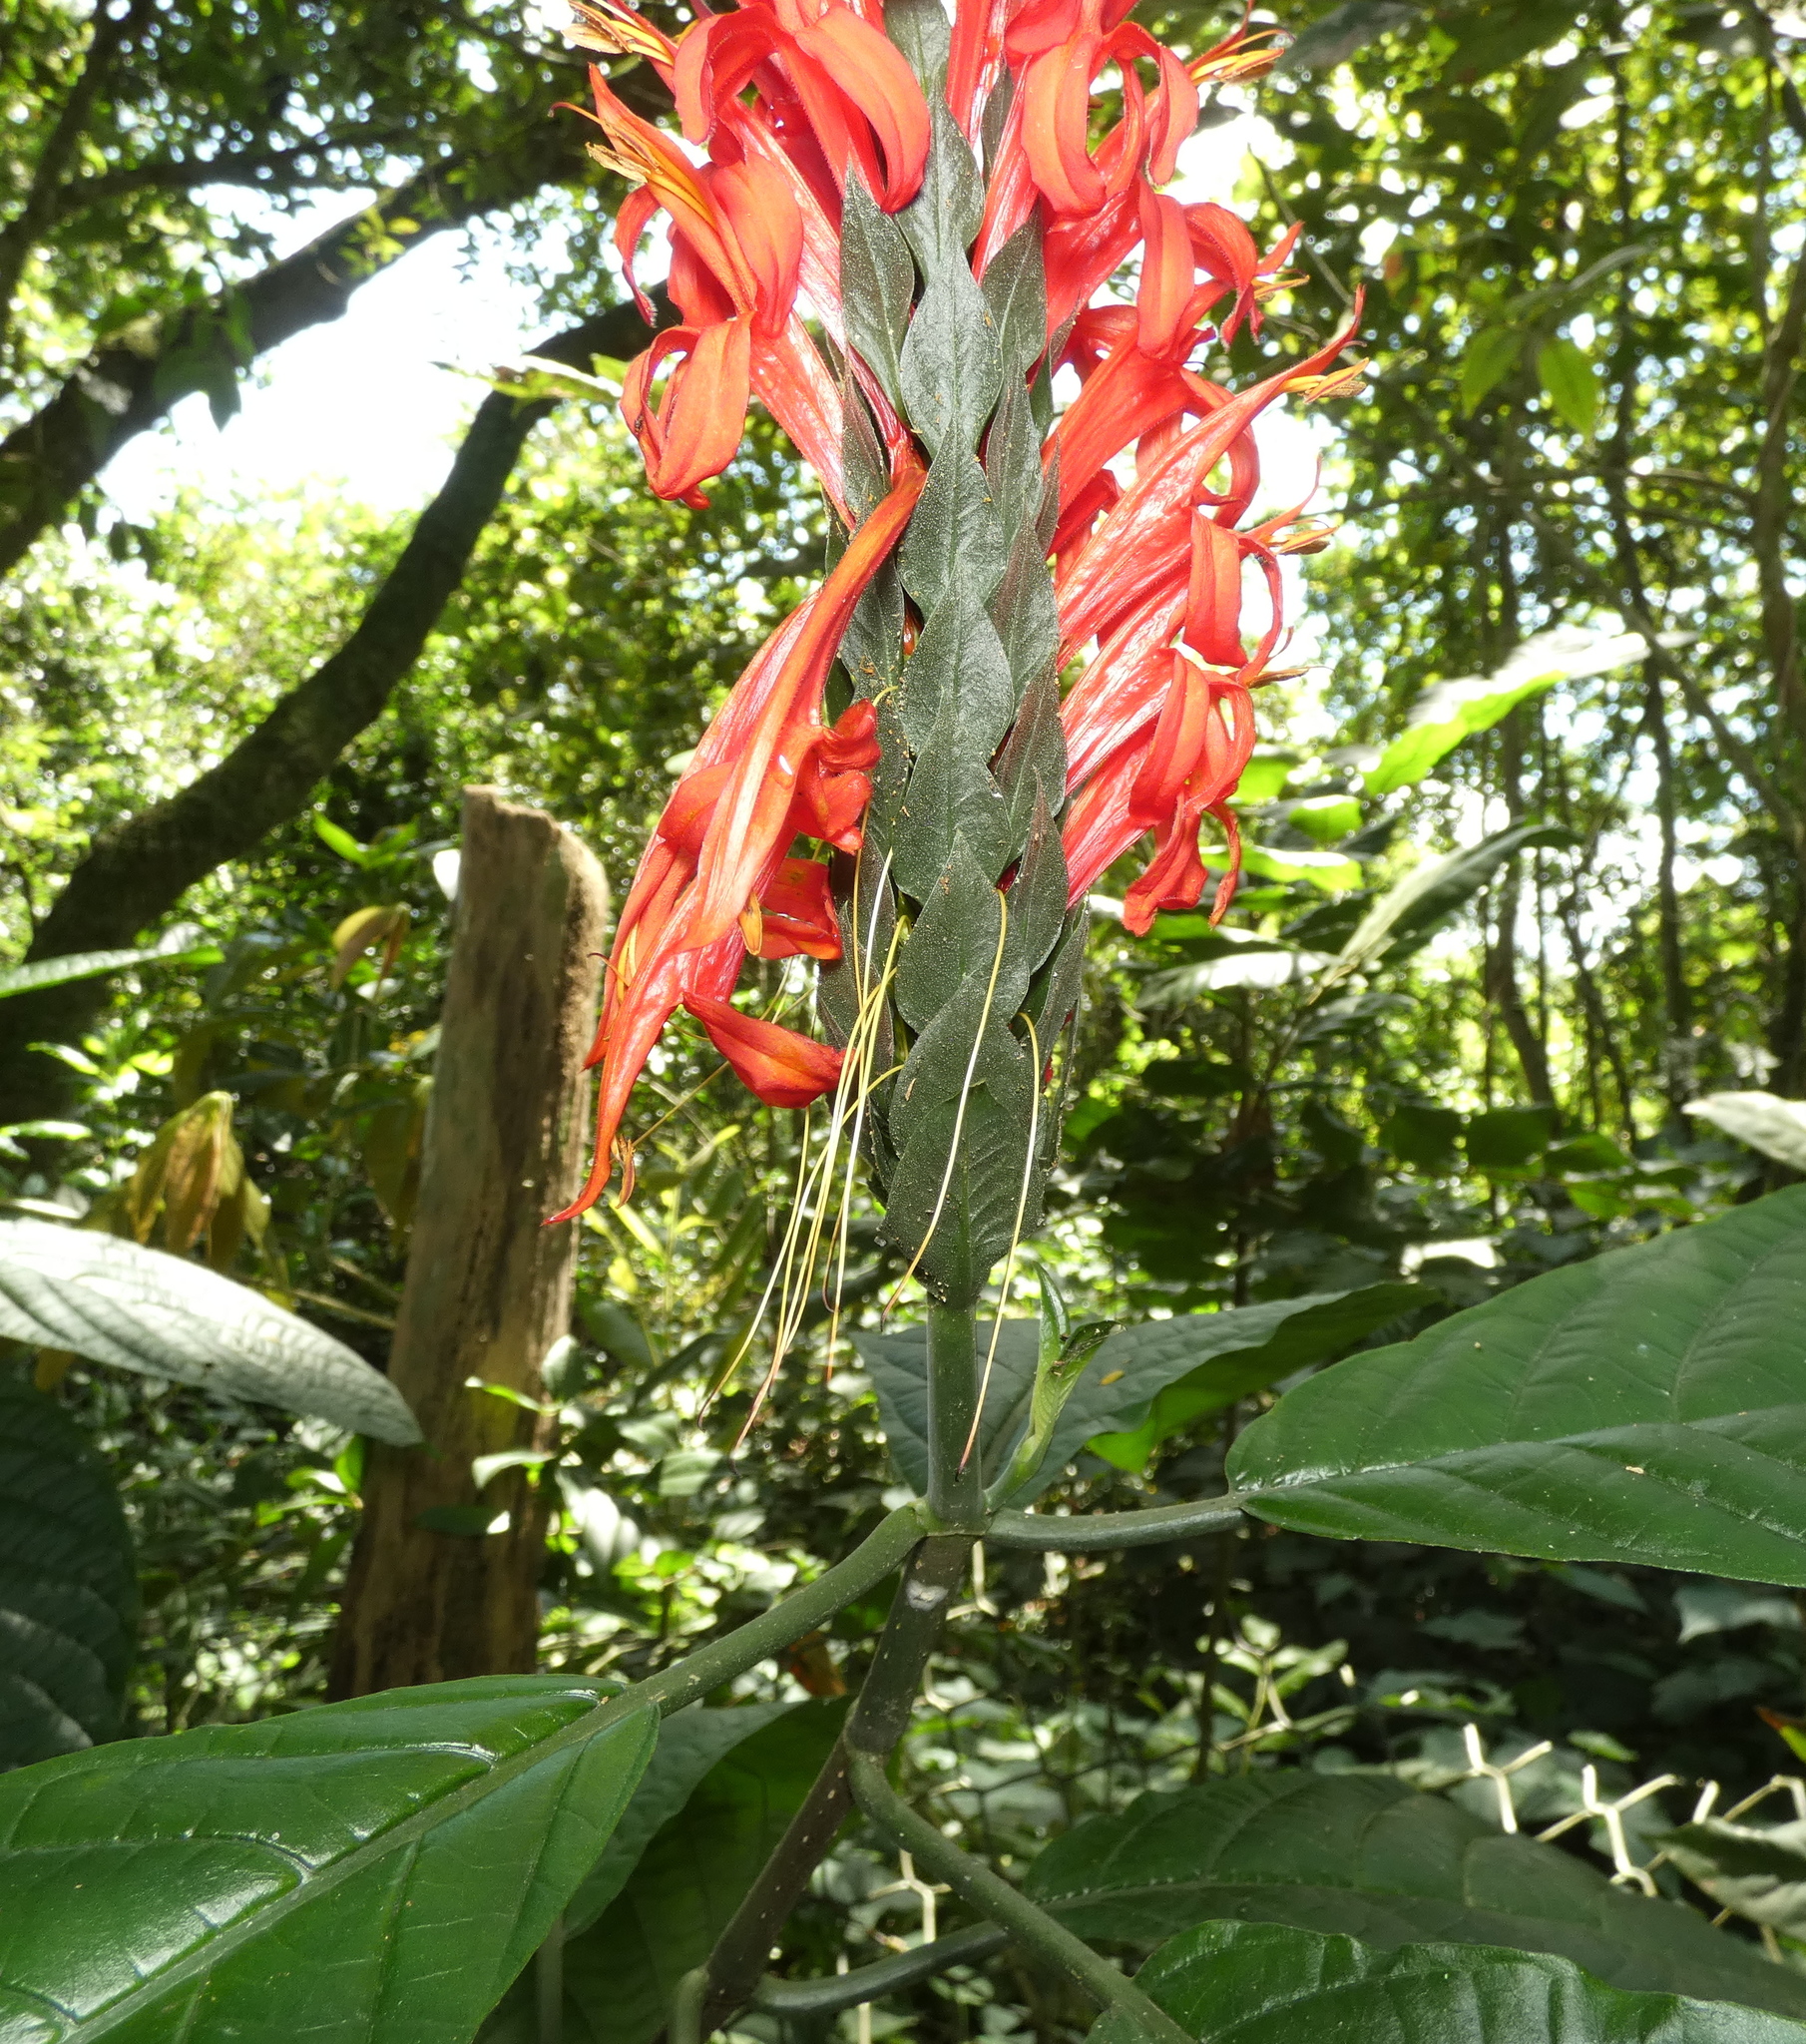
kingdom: Plantae
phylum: Tracheophyta
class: Magnoliopsida
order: Lamiales
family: Acanthaceae
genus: Pachystachys
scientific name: Pachystachys spicata
